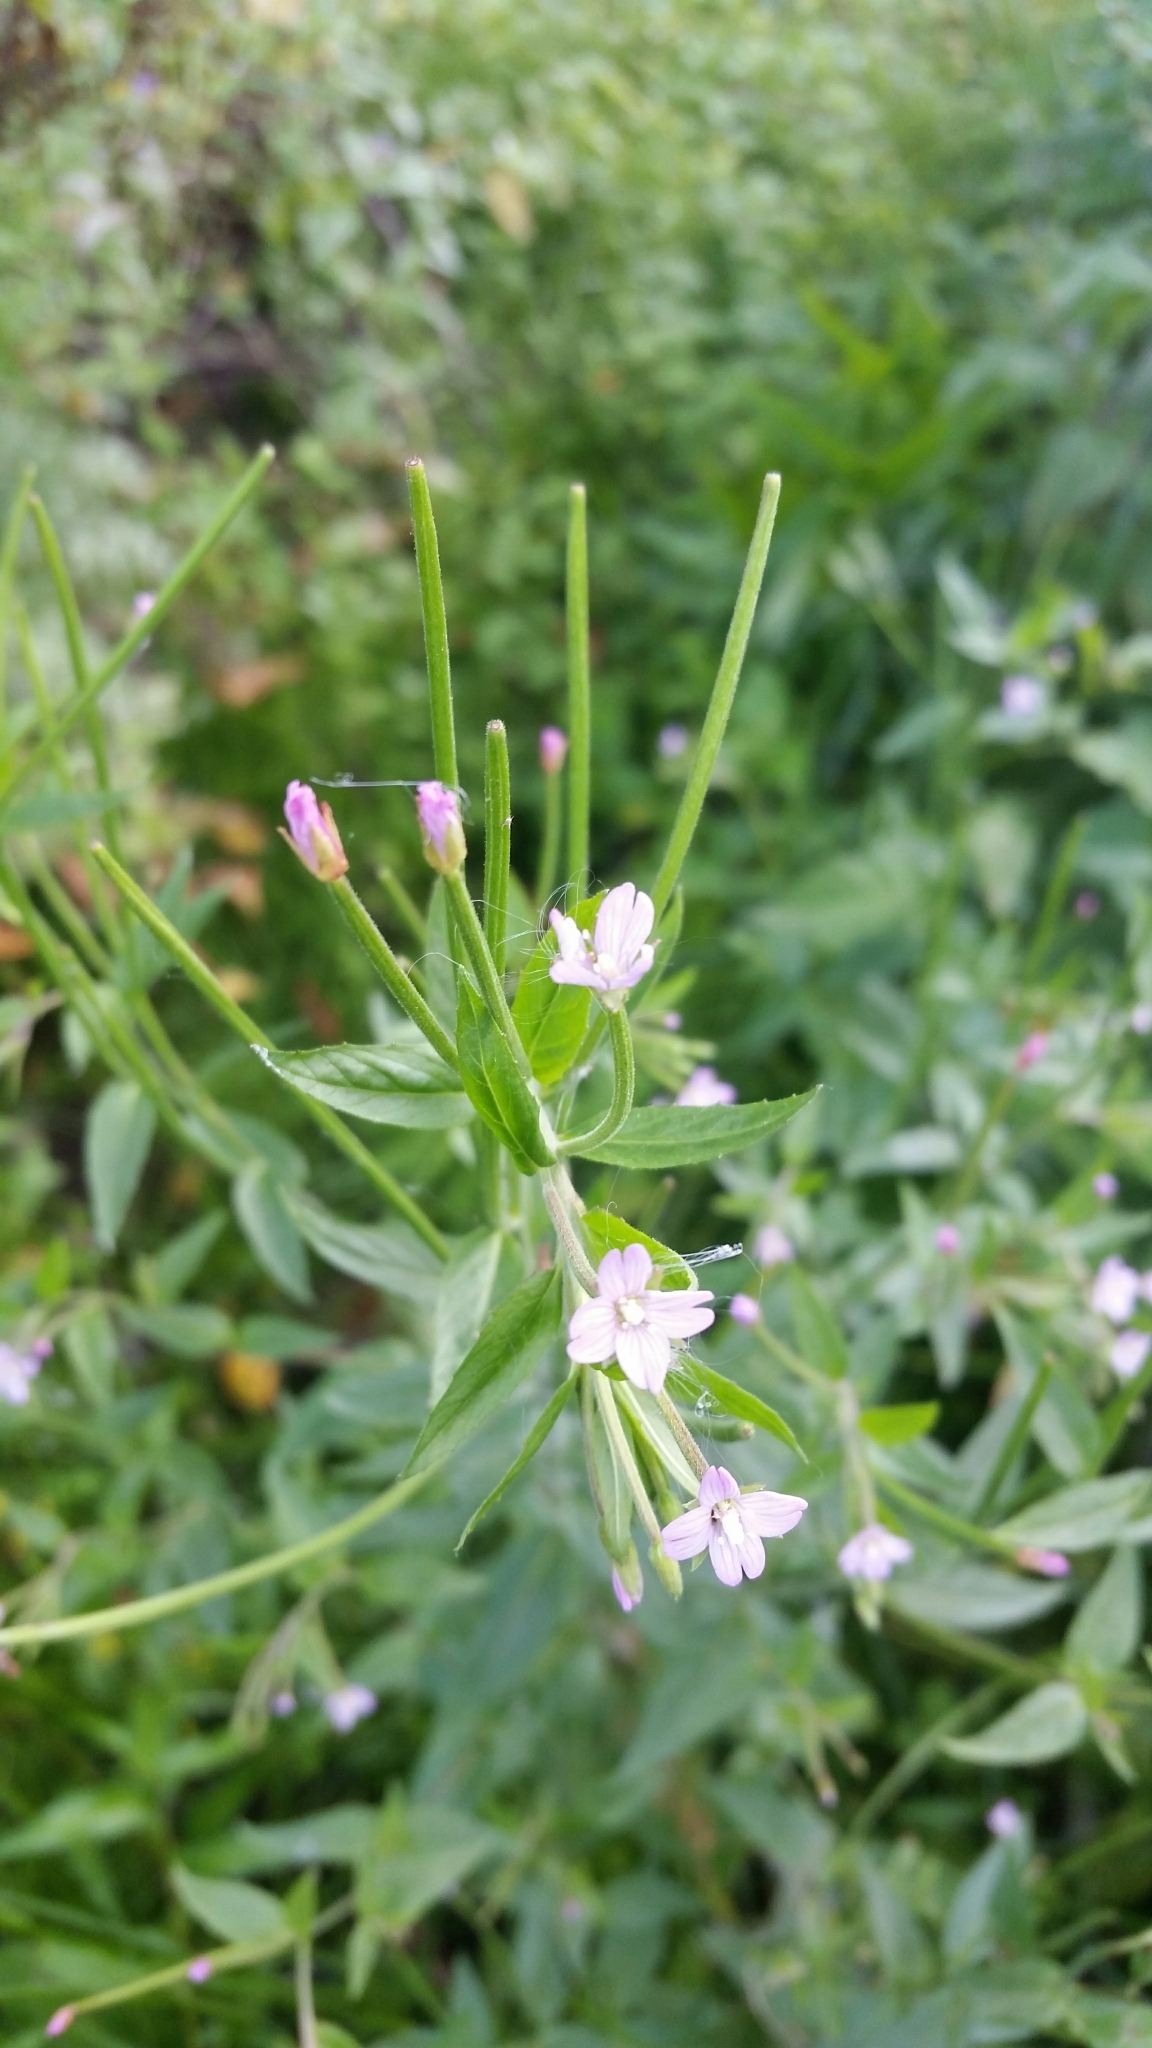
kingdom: Plantae
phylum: Tracheophyta
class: Magnoliopsida
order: Myrtales
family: Onagraceae
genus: Epilobium
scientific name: Epilobium ciliatum
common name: American willowherb
